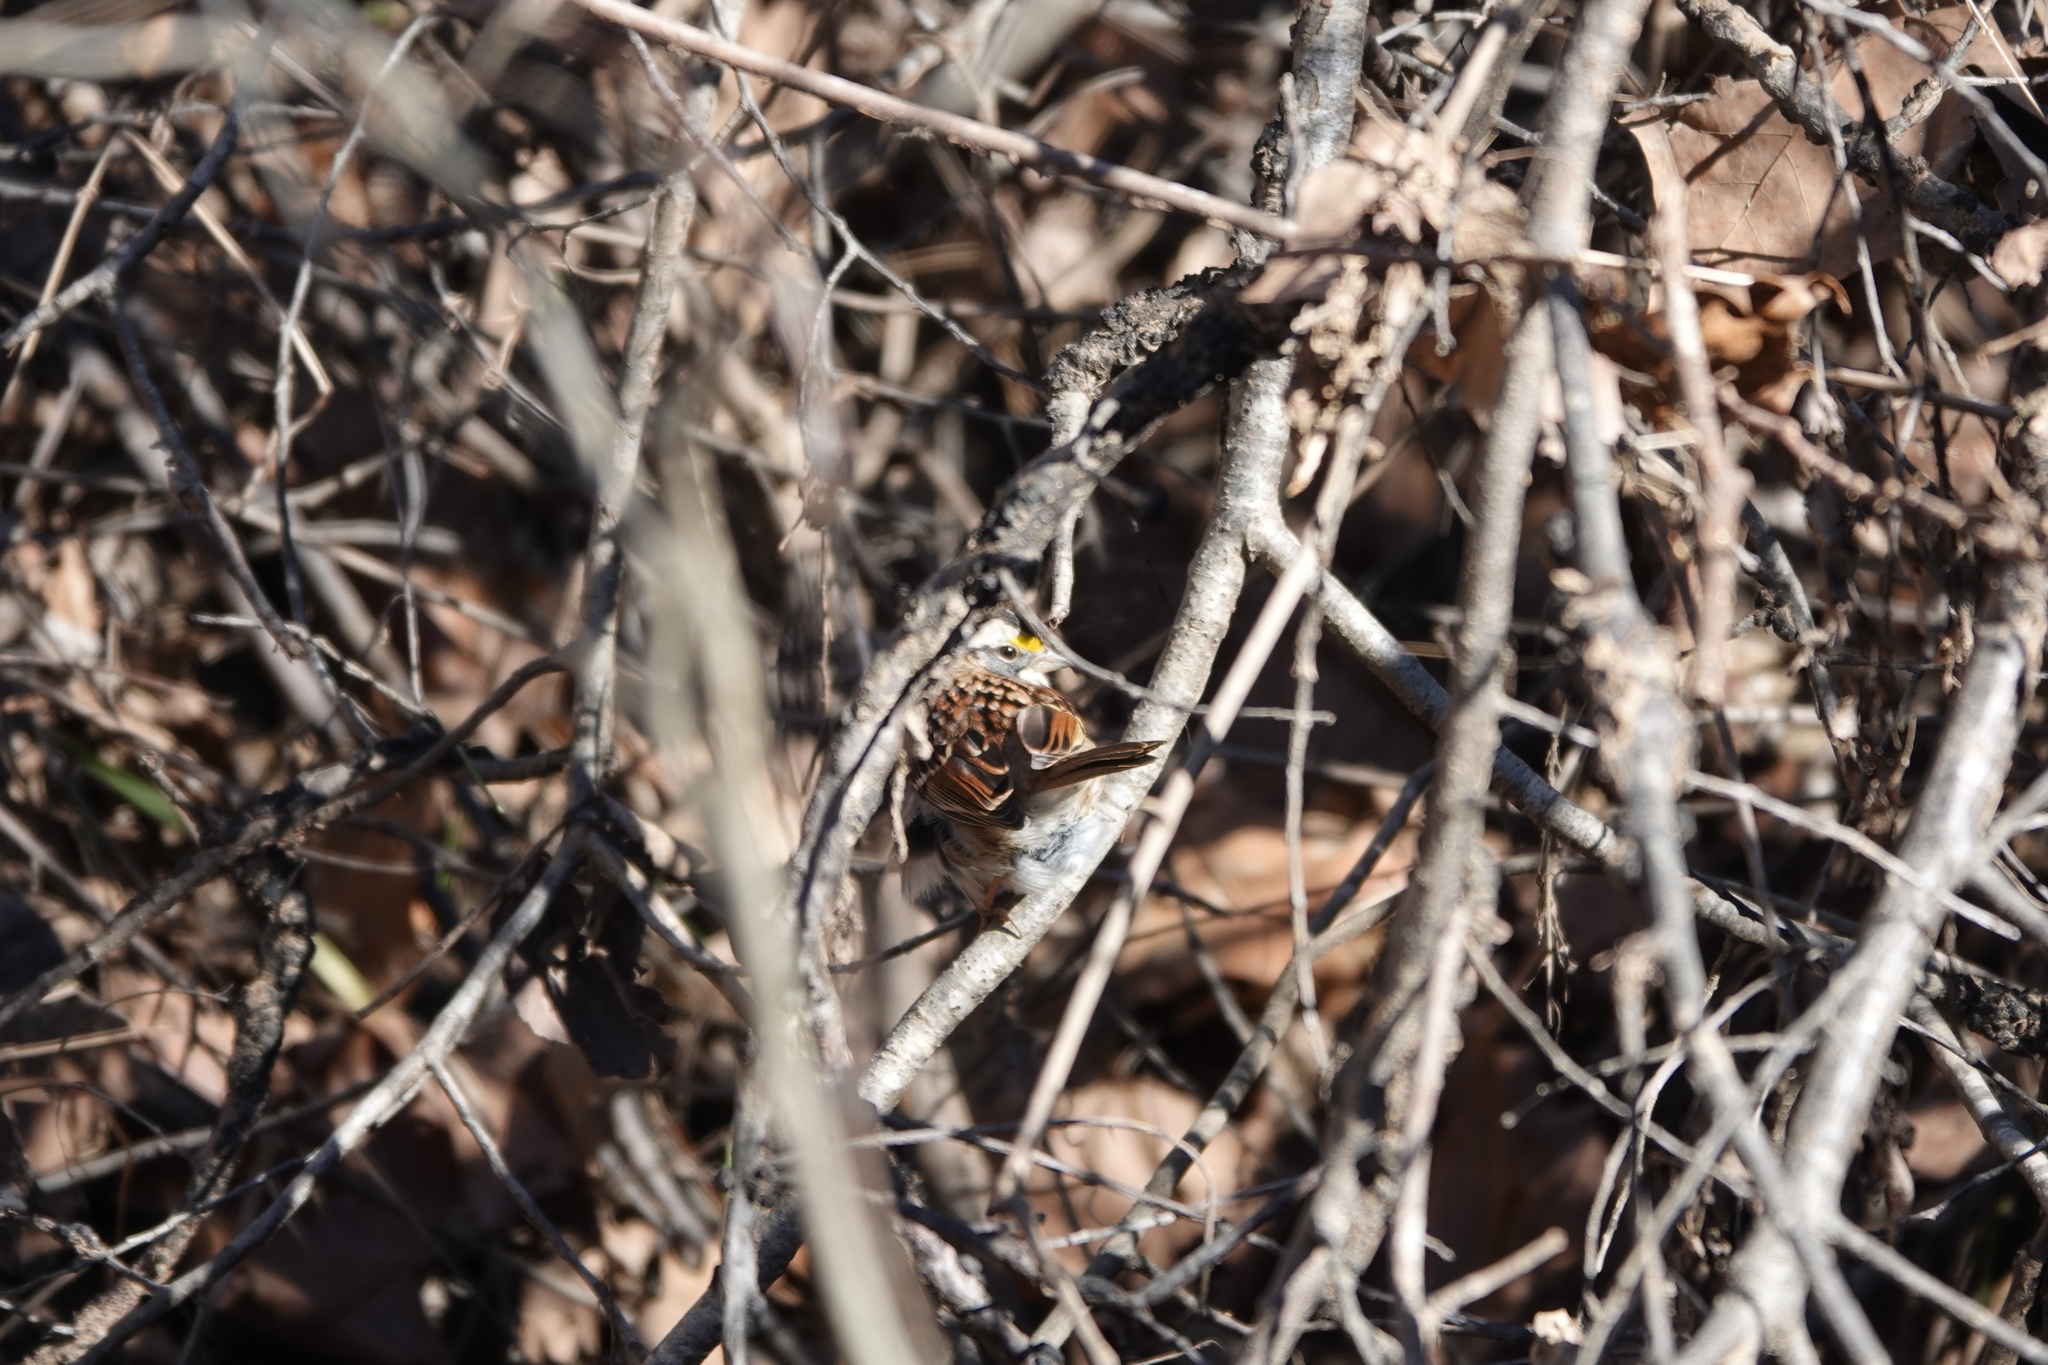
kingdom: Animalia
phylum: Chordata
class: Aves
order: Passeriformes
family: Passerellidae
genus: Zonotrichia
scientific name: Zonotrichia albicollis
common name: White-throated sparrow
